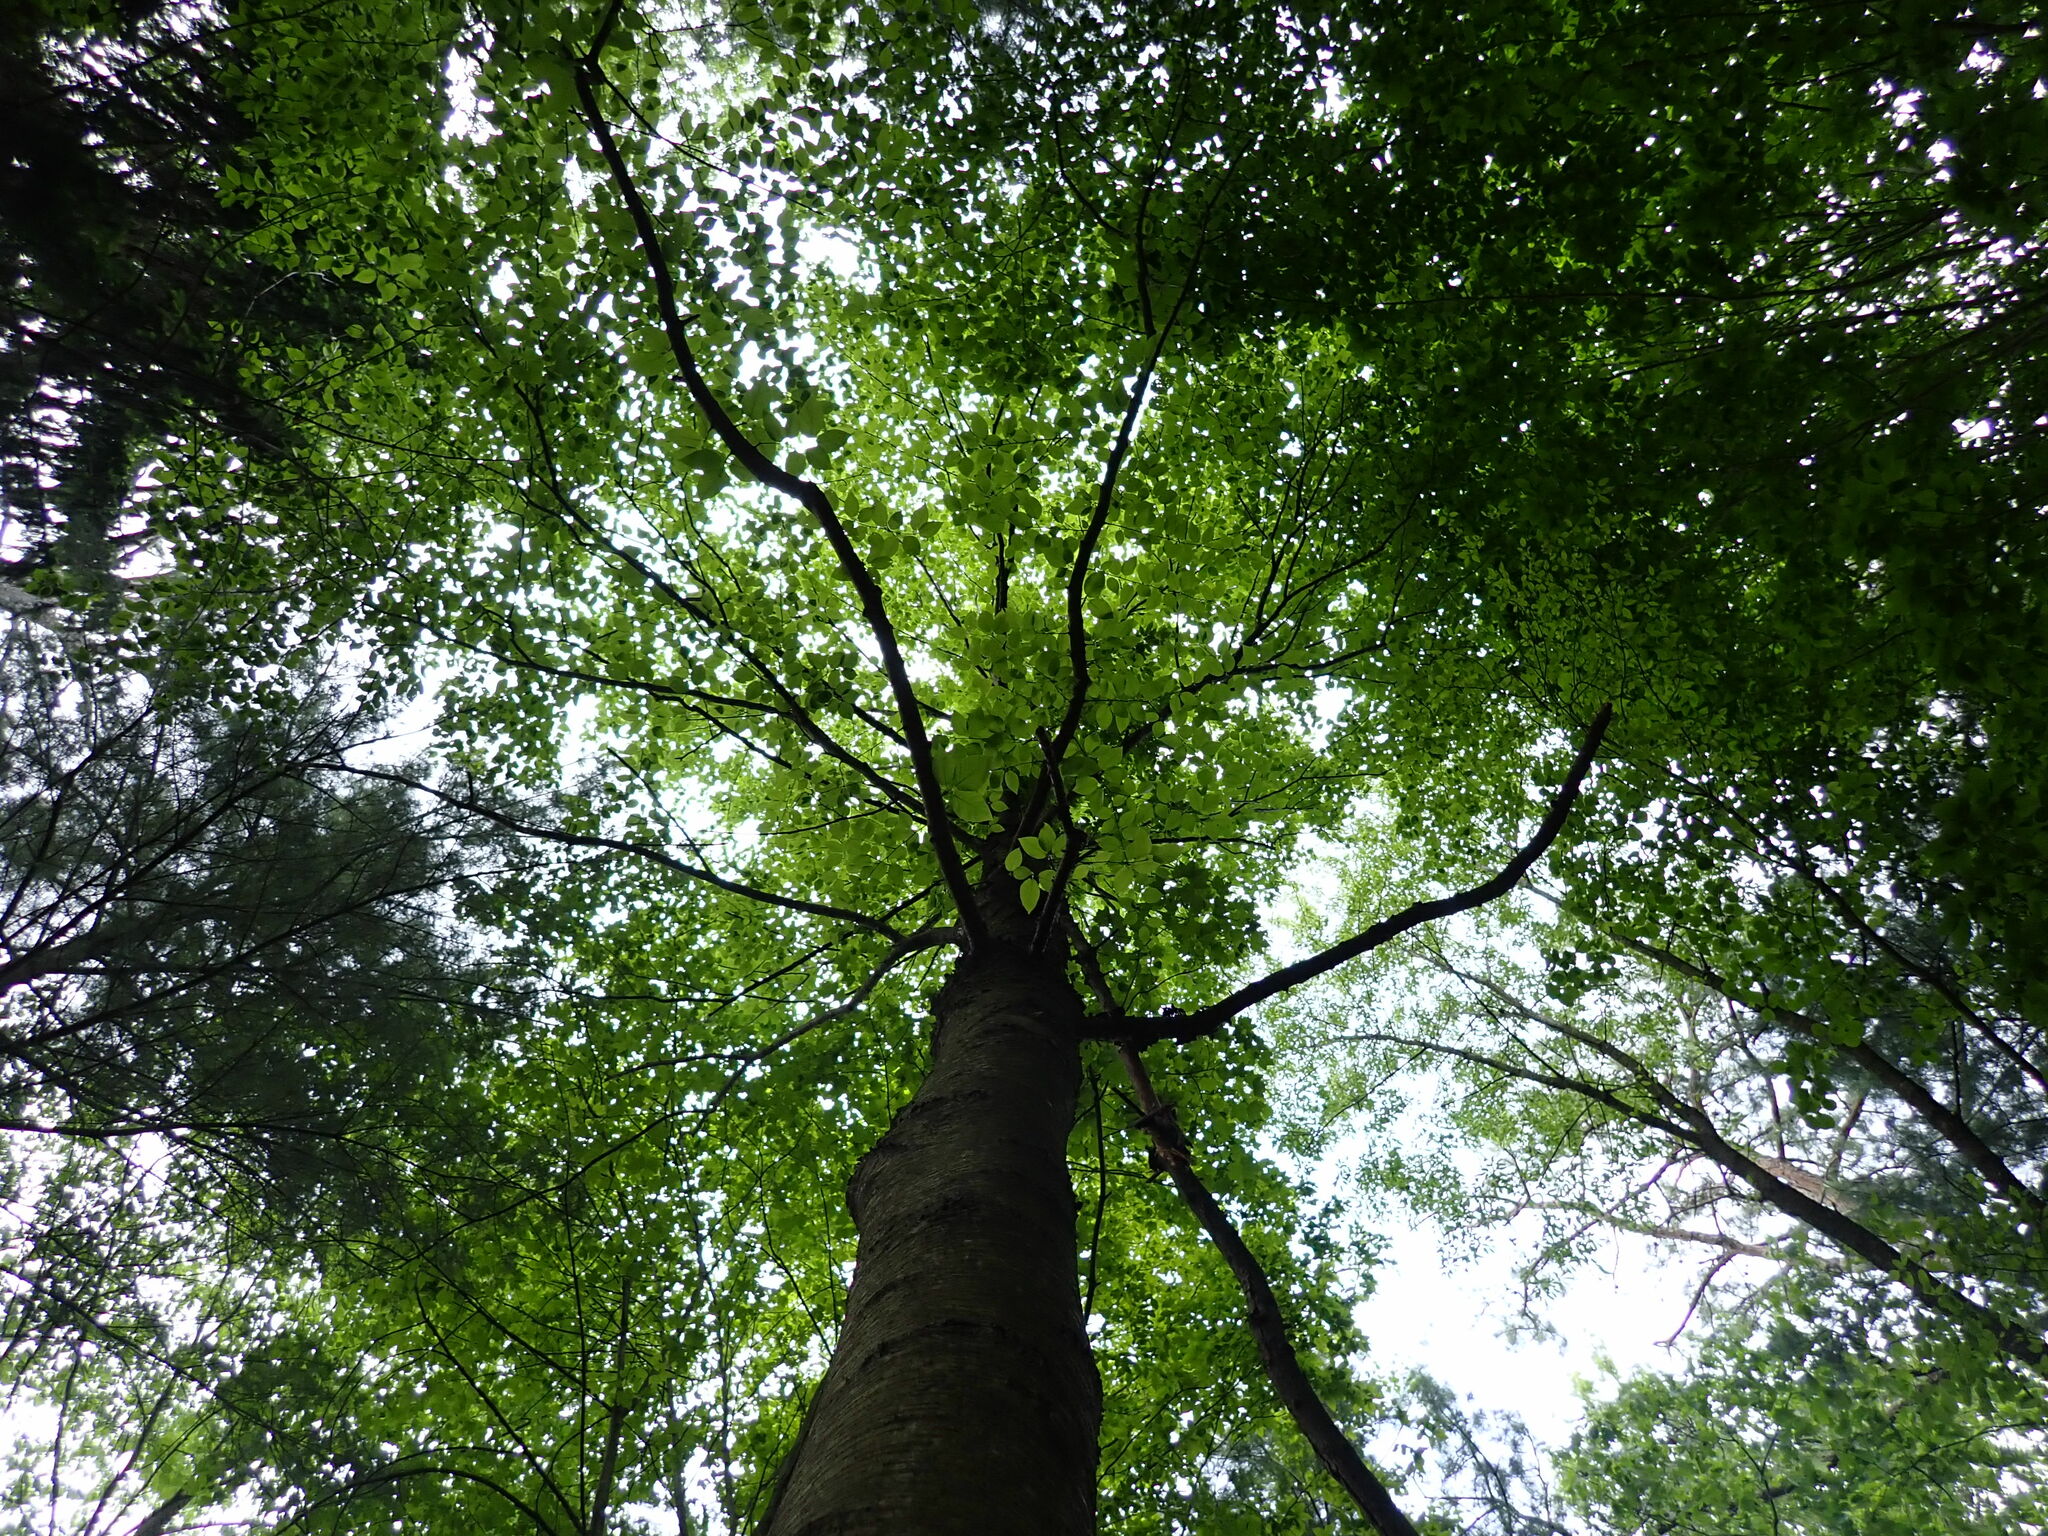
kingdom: Plantae
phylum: Tracheophyta
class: Magnoliopsida
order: Fagales
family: Fagaceae
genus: Fagus
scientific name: Fagus grandifolia
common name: American beech
